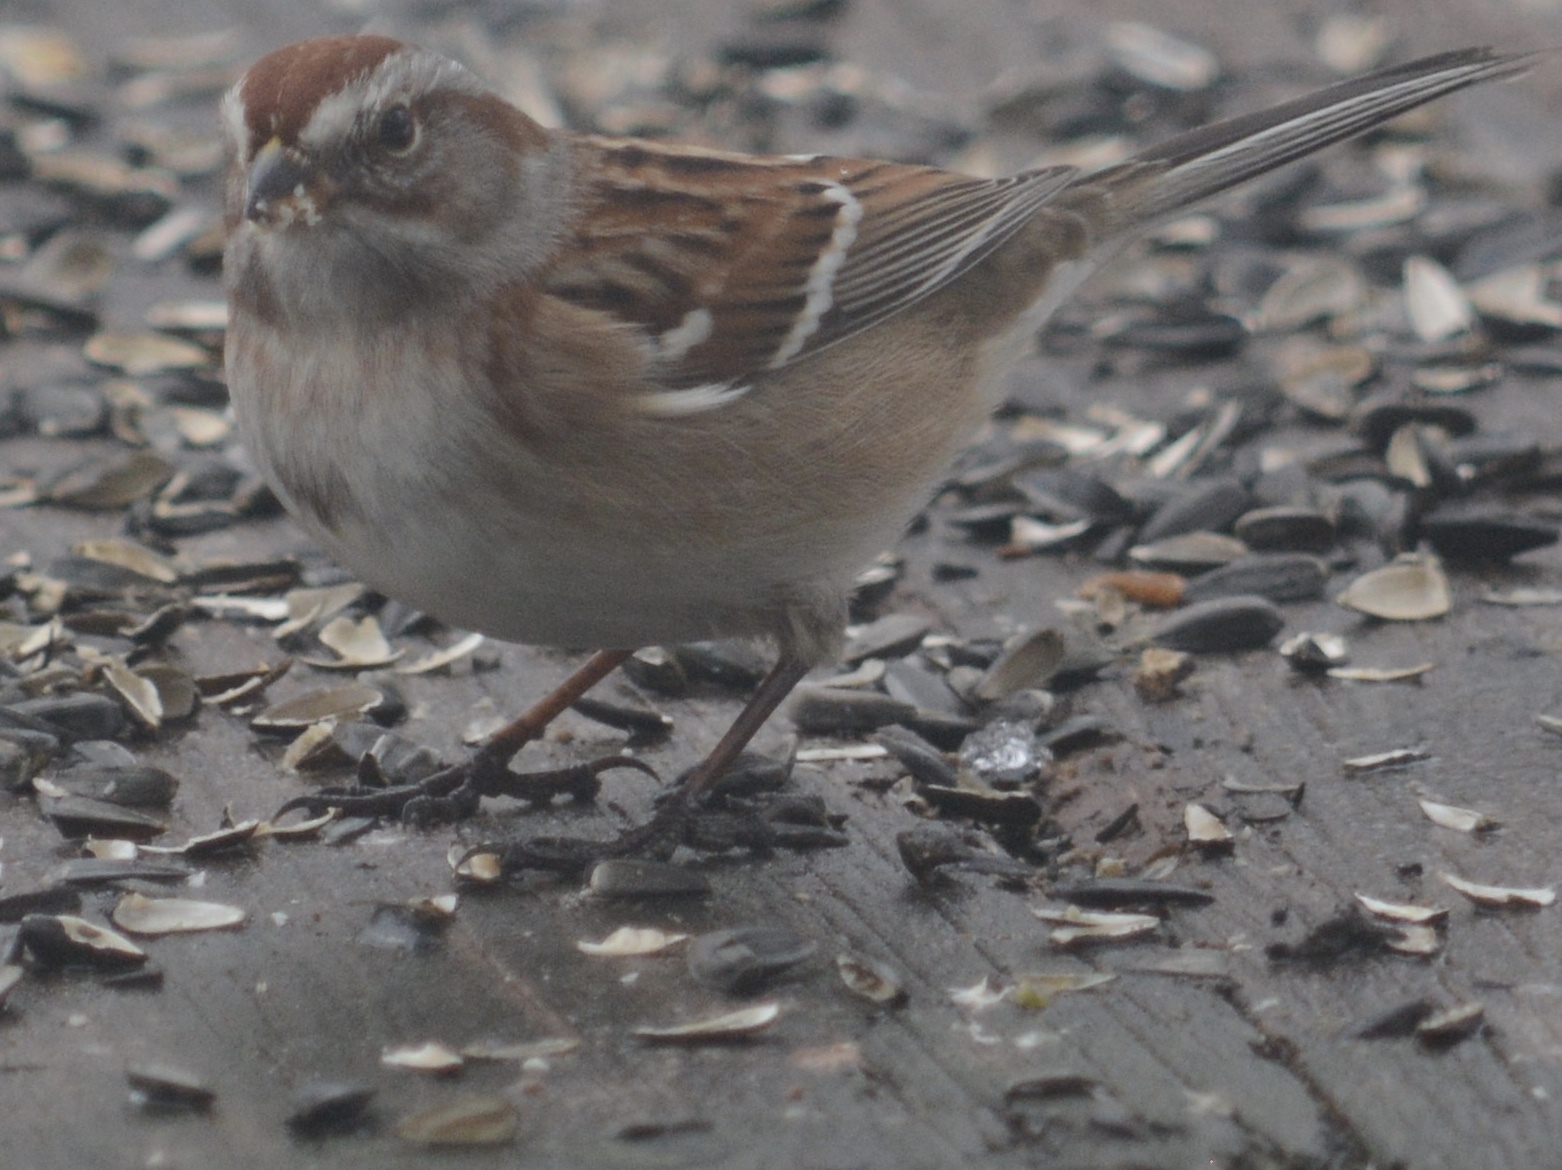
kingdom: Animalia
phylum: Chordata
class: Aves
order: Passeriformes
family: Passerellidae
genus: Spizelloides
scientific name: Spizelloides arborea
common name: American tree sparrow
